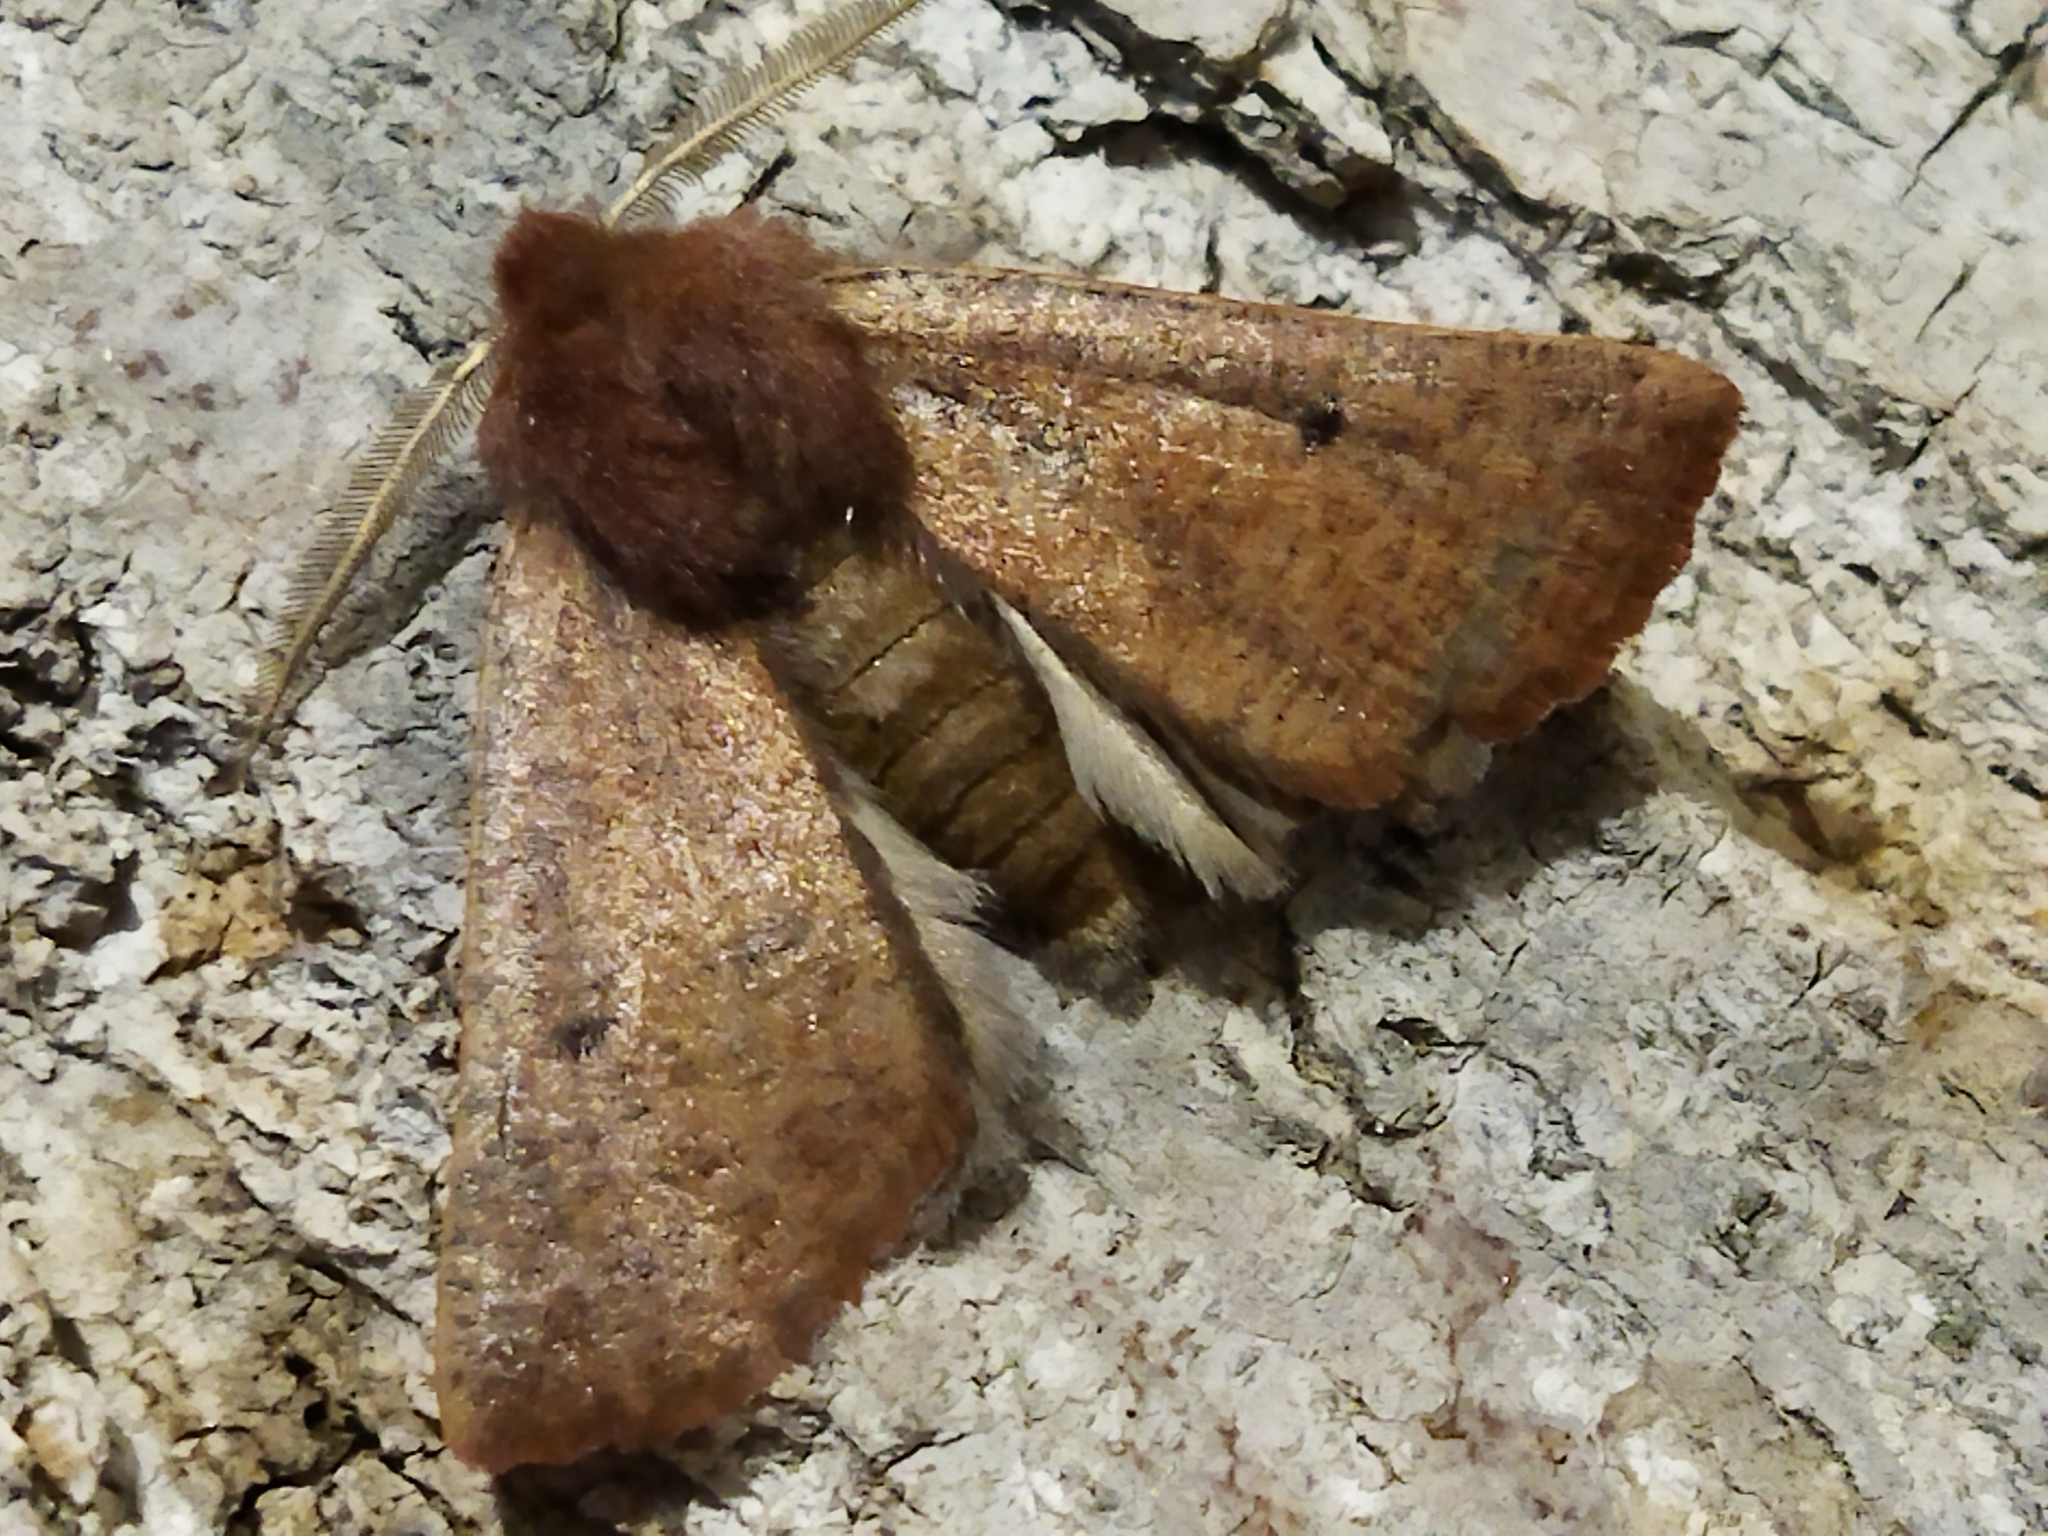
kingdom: Animalia
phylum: Arthropoda
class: Insecta
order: Lepidoptera
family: Geometridae
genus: Dasycorsa
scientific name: Dasycorsa modesta
